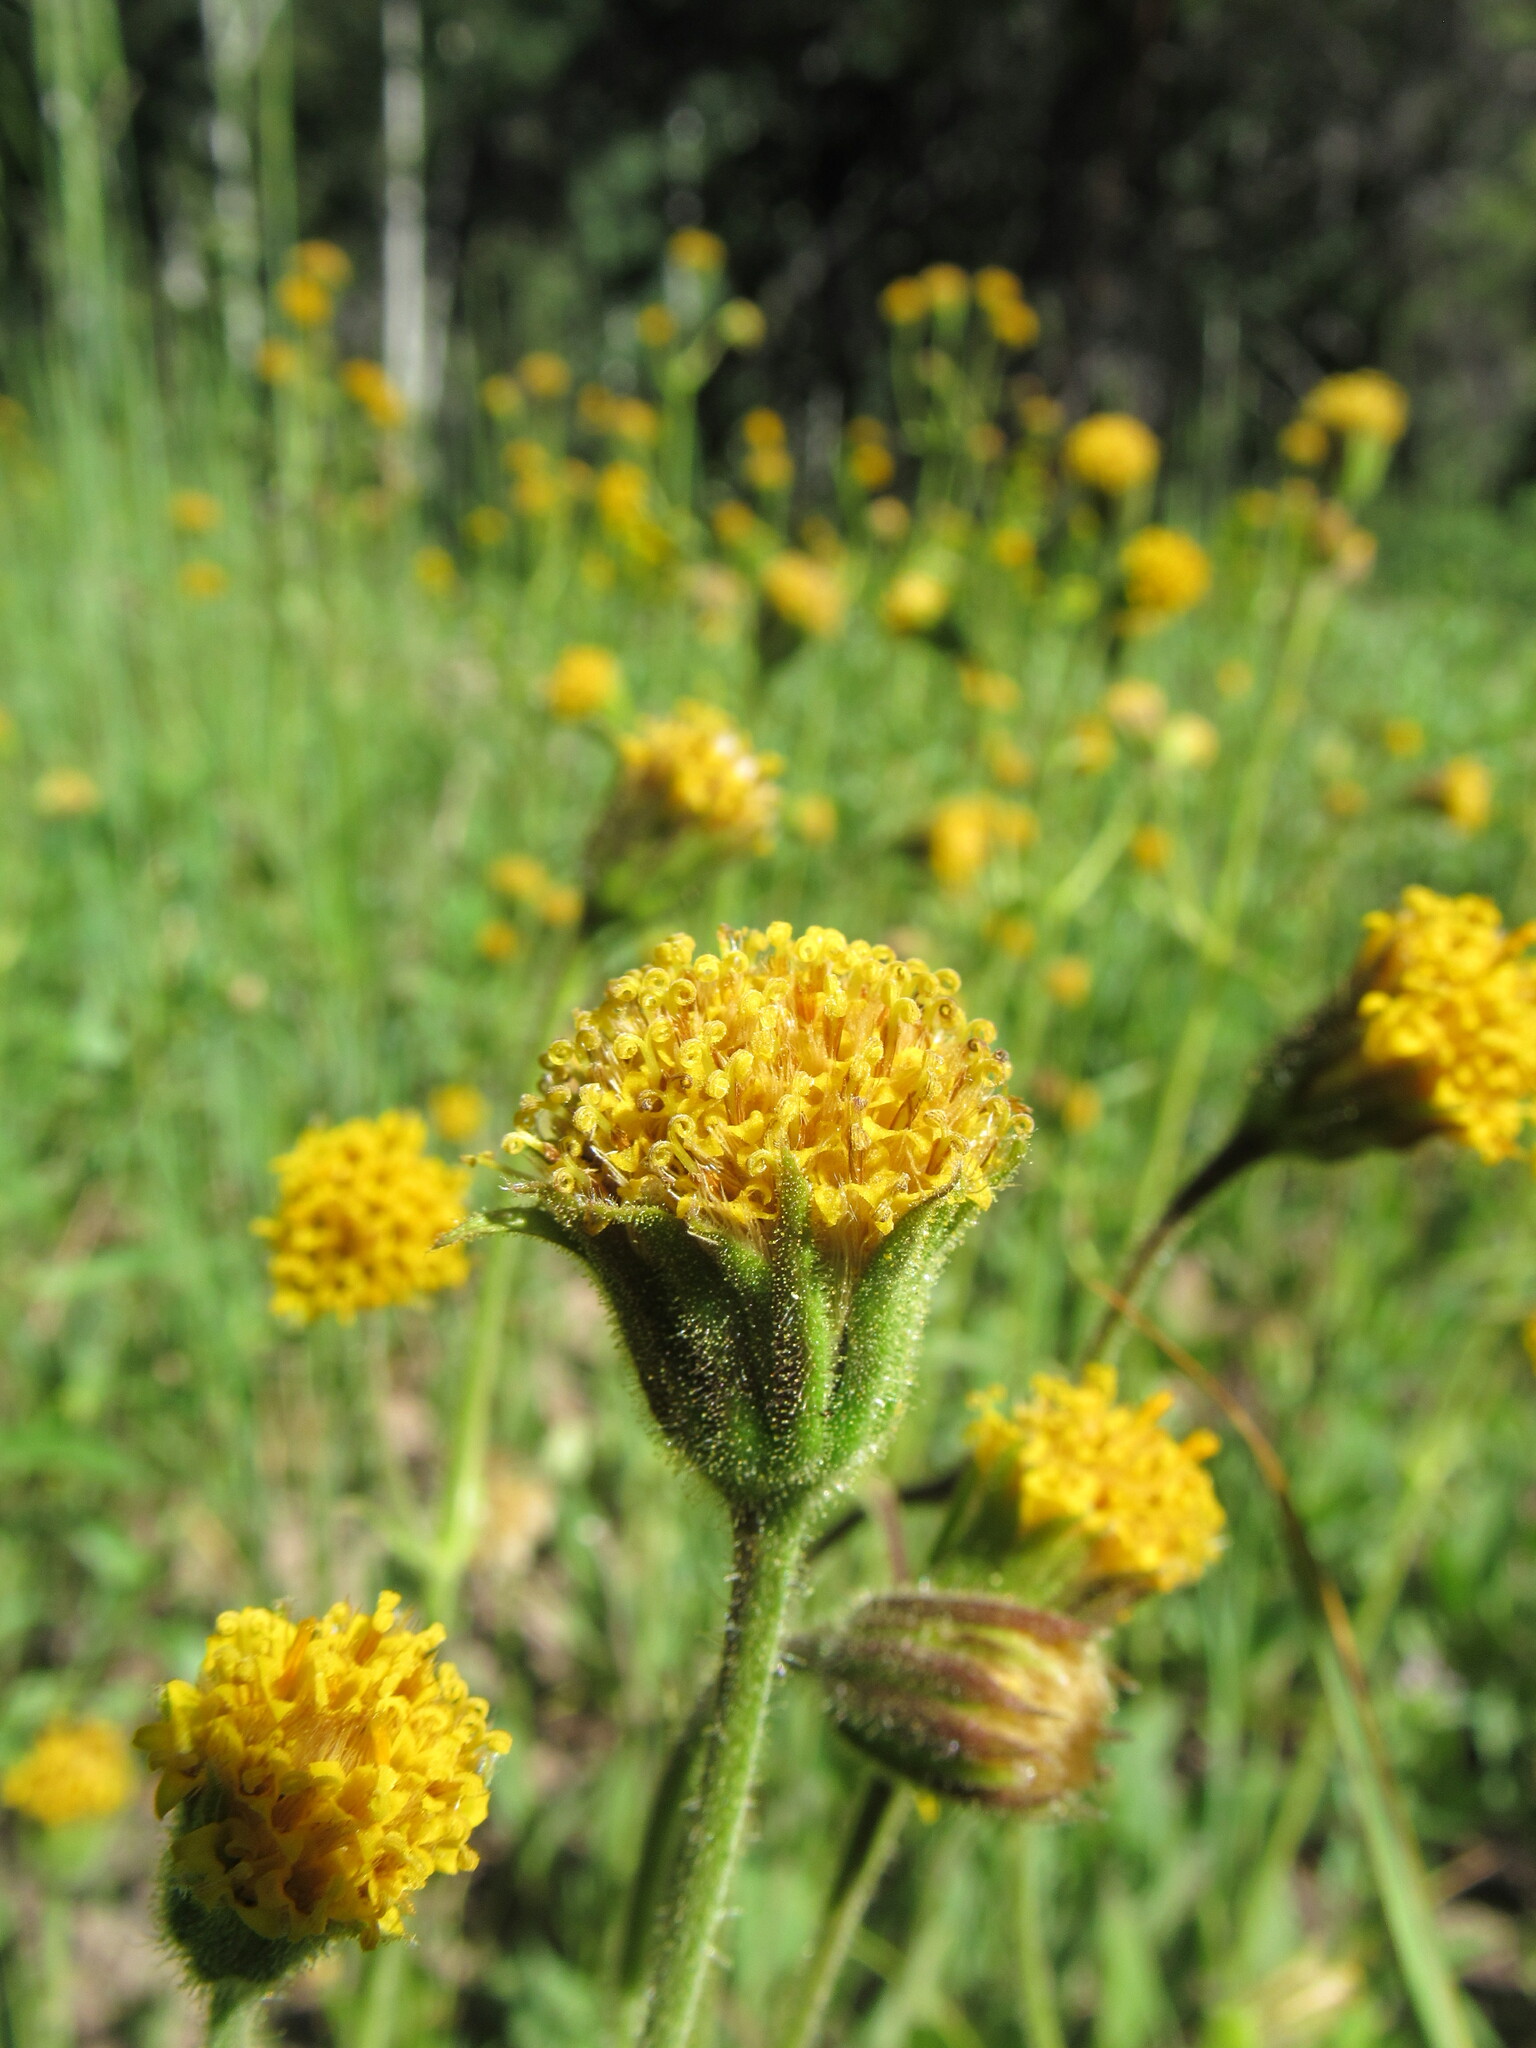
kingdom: Plantae
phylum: Tracheophyta
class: Magnoliopsida
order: Asterales
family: Asteraceae
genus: Arnica
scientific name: Arnica parryi
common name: Parry's arnica
